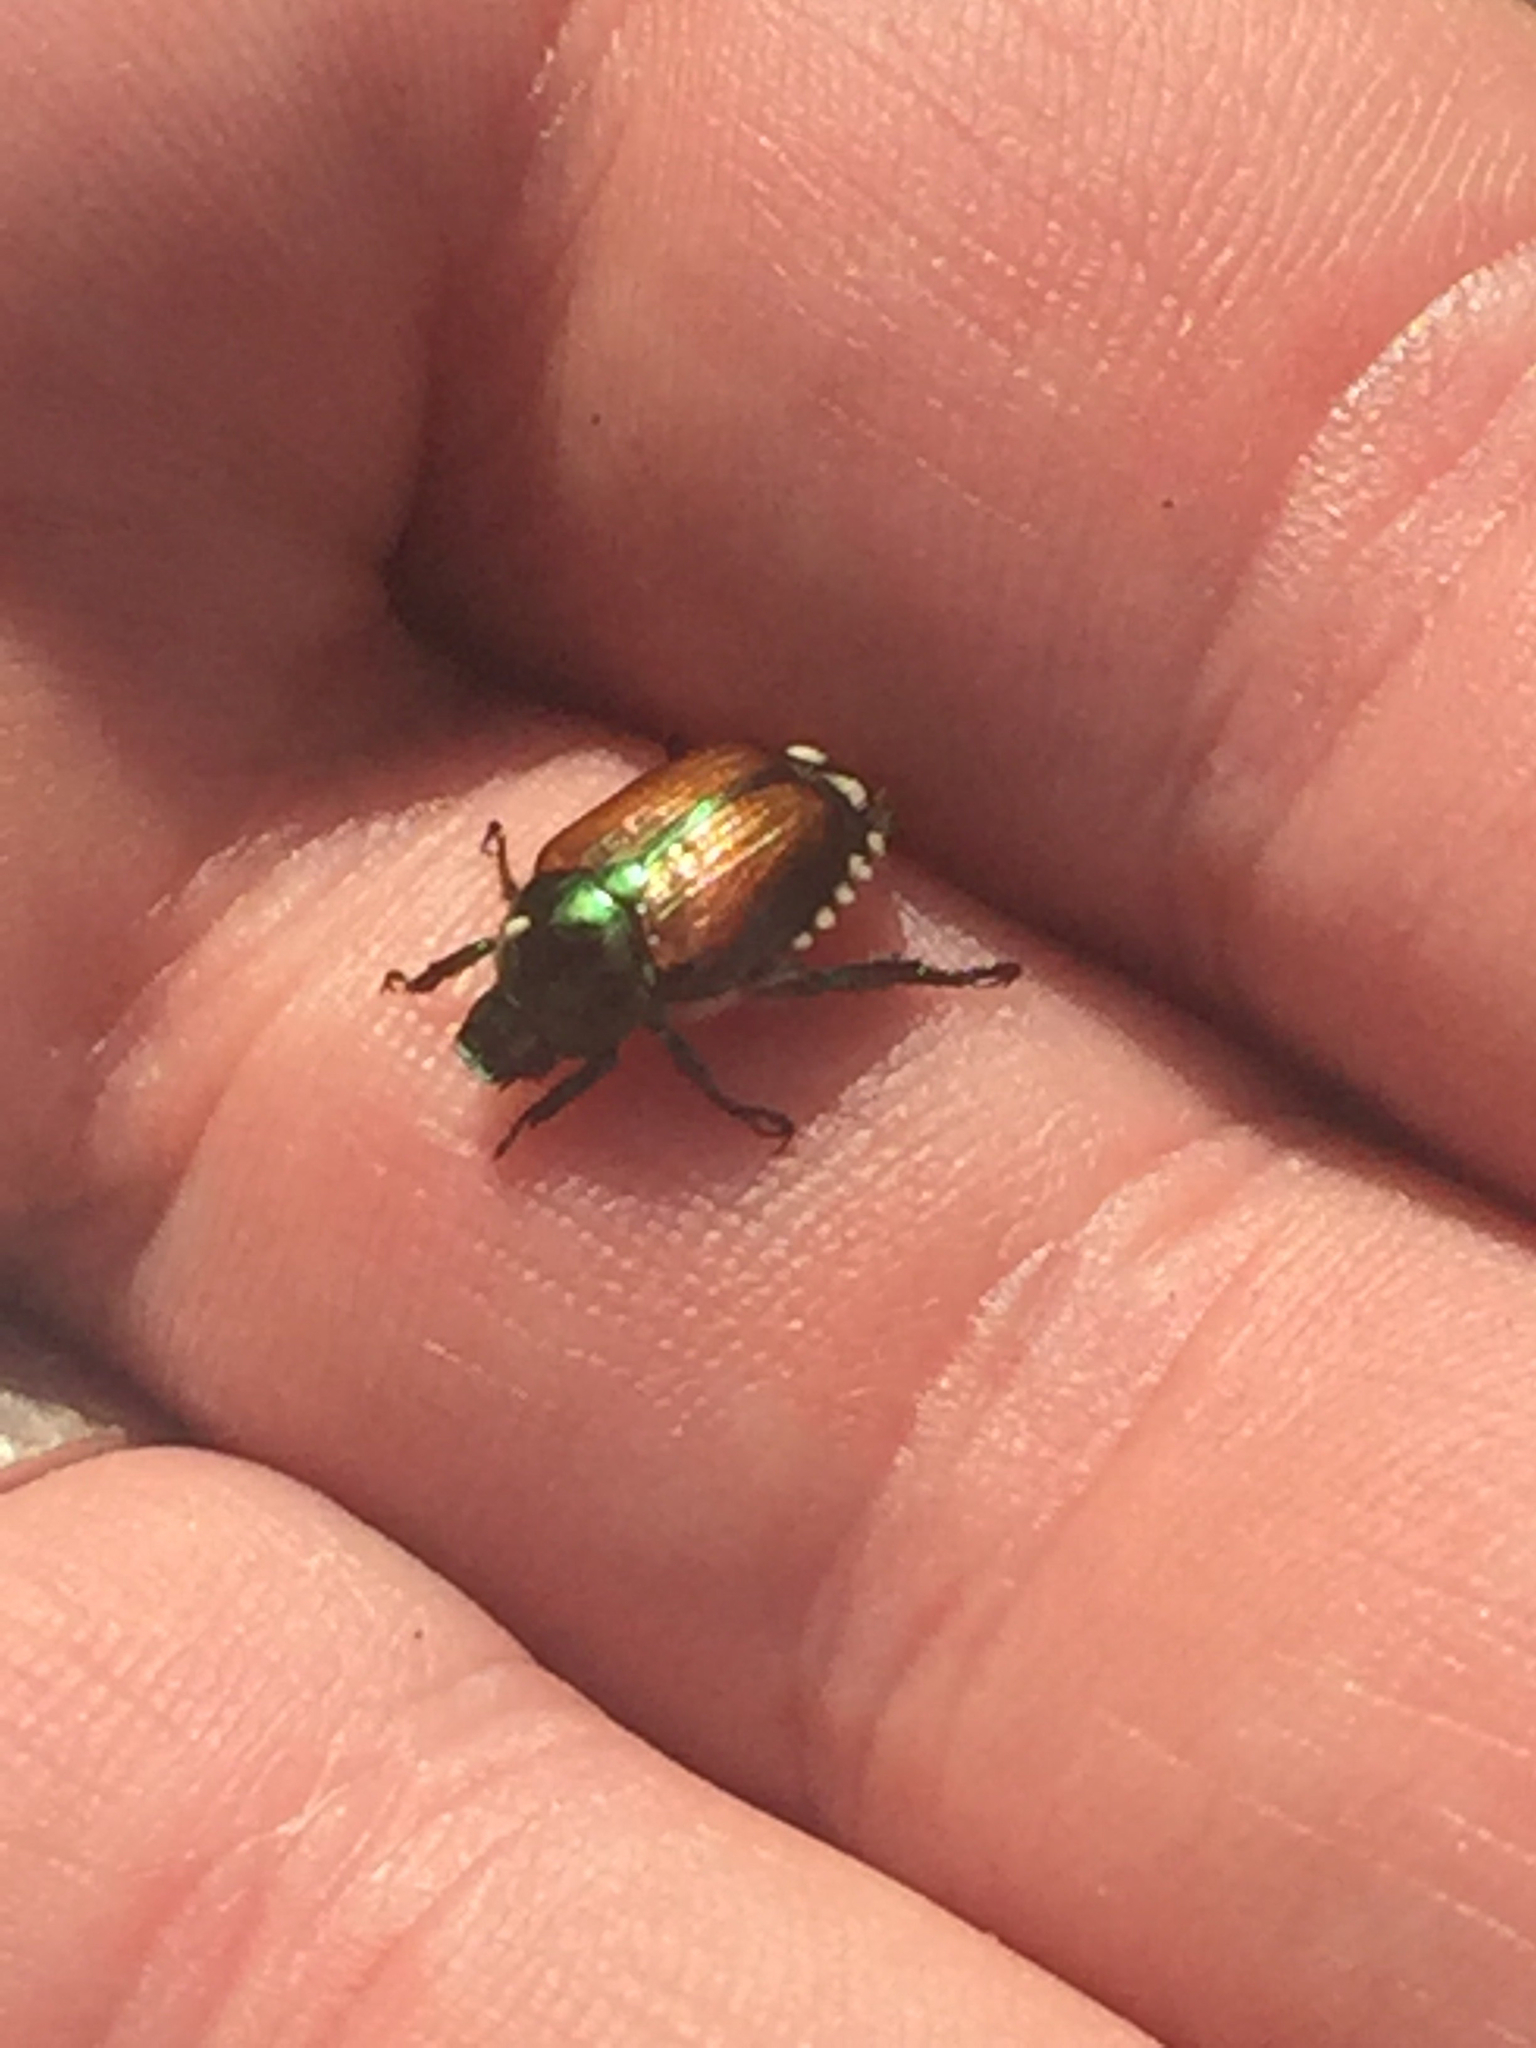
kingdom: Animalia
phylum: Arthropoda
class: Insecta
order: Coleoptera
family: Scarabaeidae
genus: Popillia
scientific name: Popillia japonica
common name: Japanese beetle
